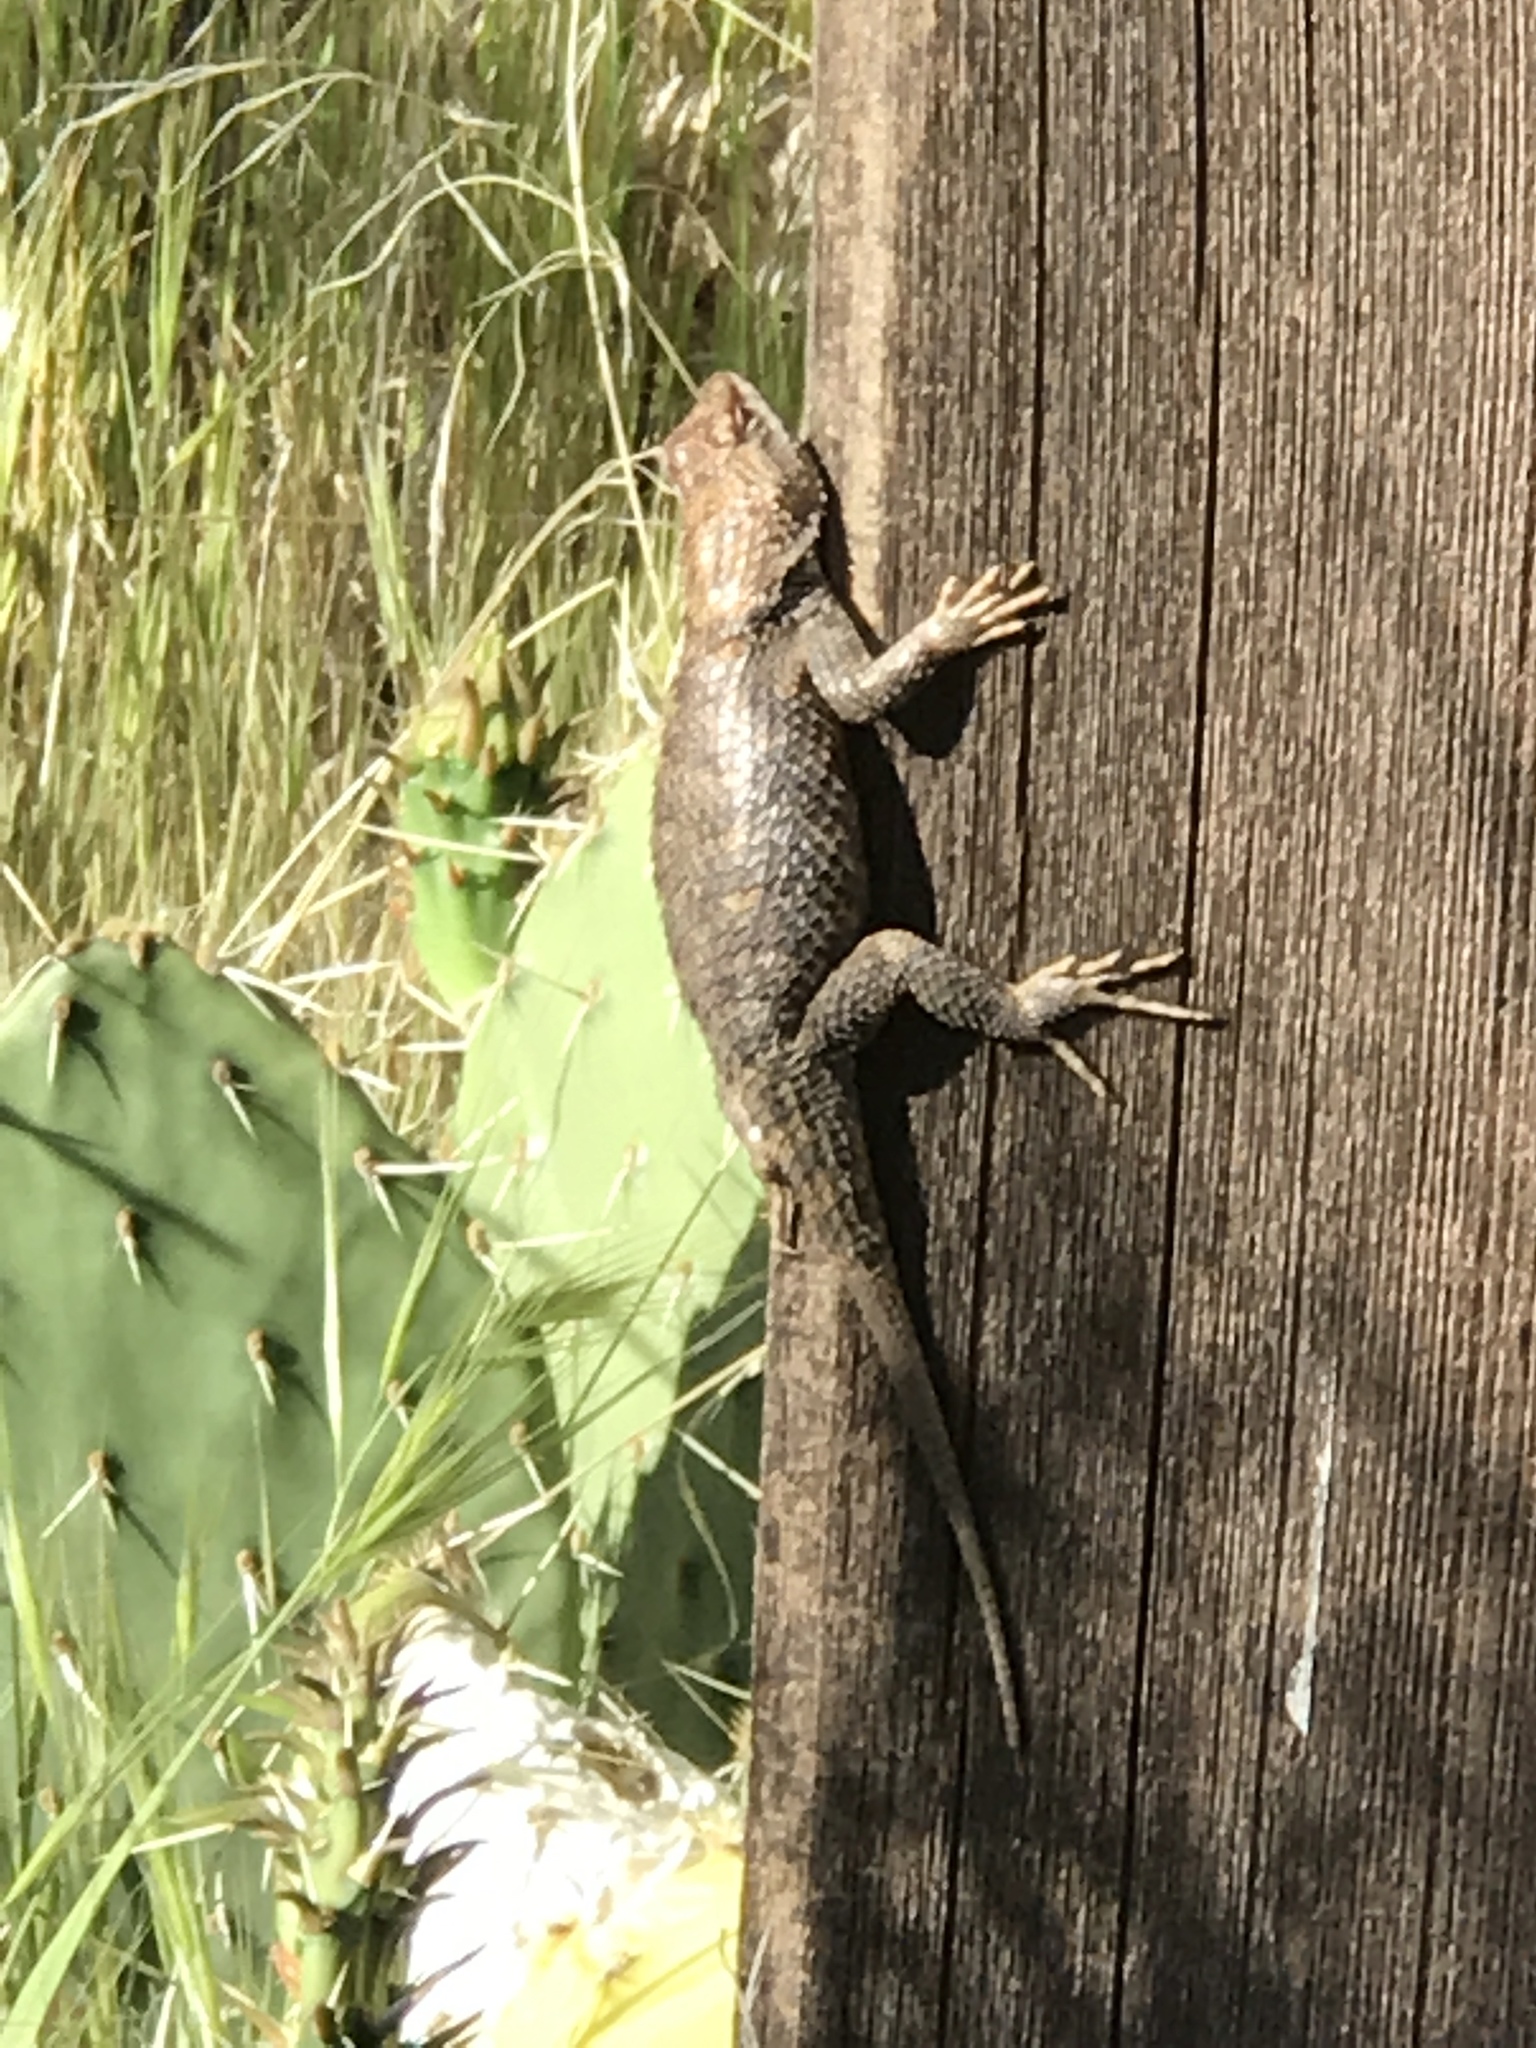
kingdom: Animalia
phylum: Chordata
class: Squamata
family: Phrynosomatidae
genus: Sceloporus
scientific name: Sceloporus uniformis
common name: Yellow-backed spiny lizard
